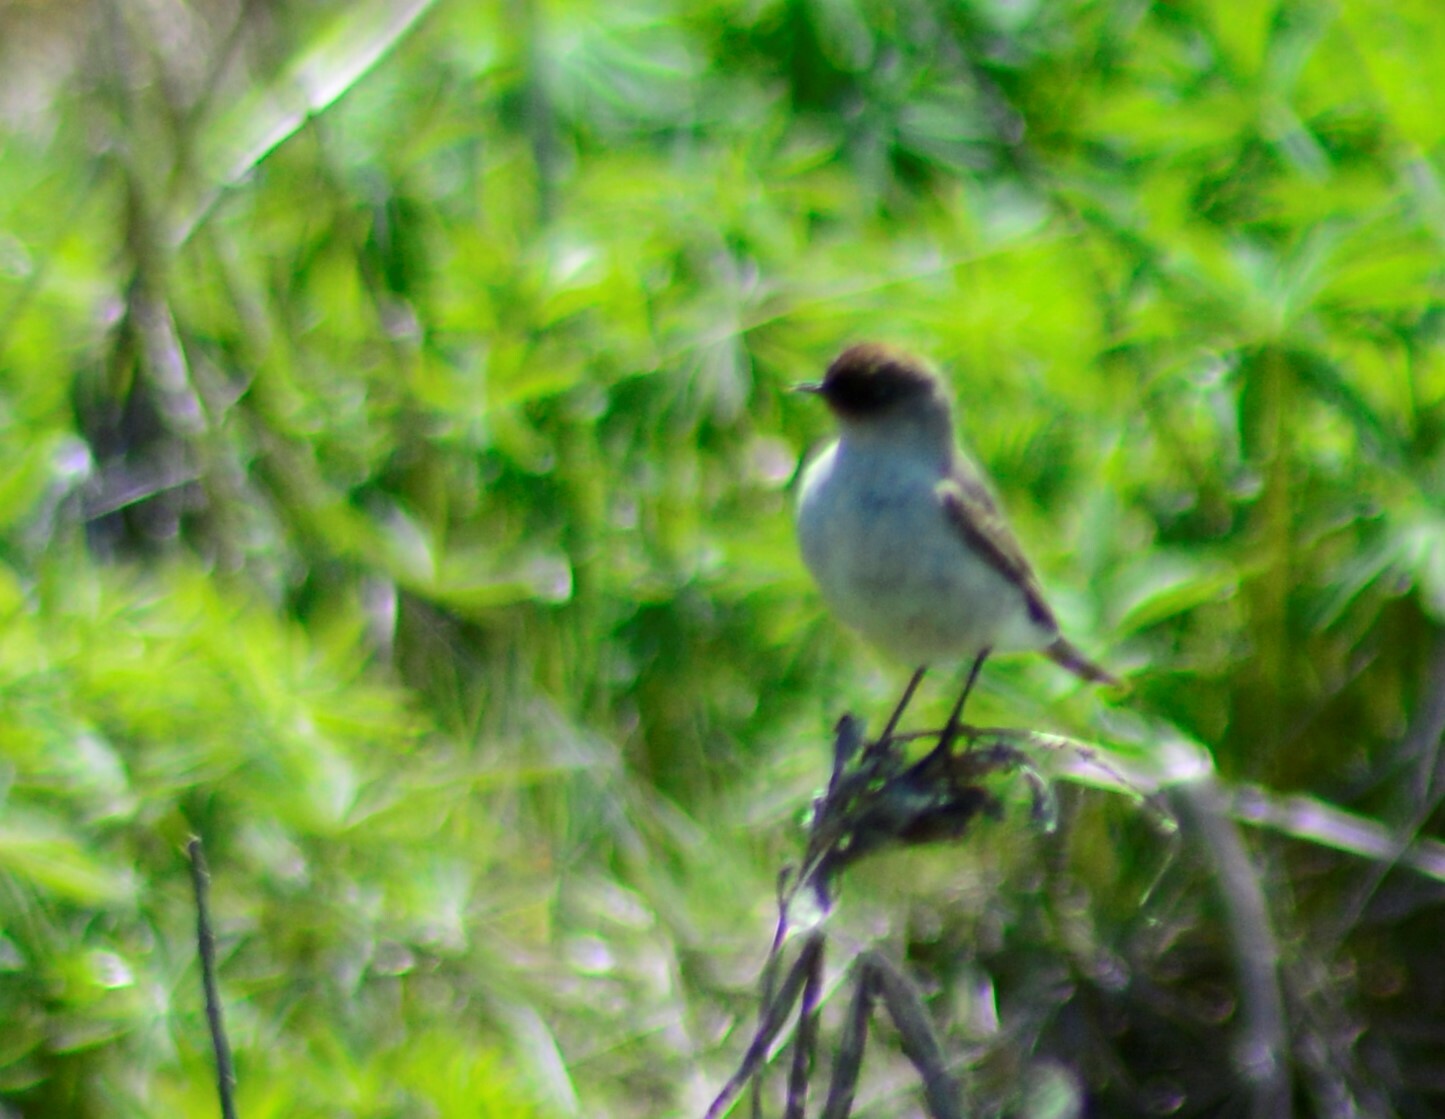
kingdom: Animalia
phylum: Chordata
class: Aves
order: Passeriformes
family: Tyrannidae
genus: Muscisaxicola
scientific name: Muscisaxicola maclovianus
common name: Dark-faced ground tyrant
